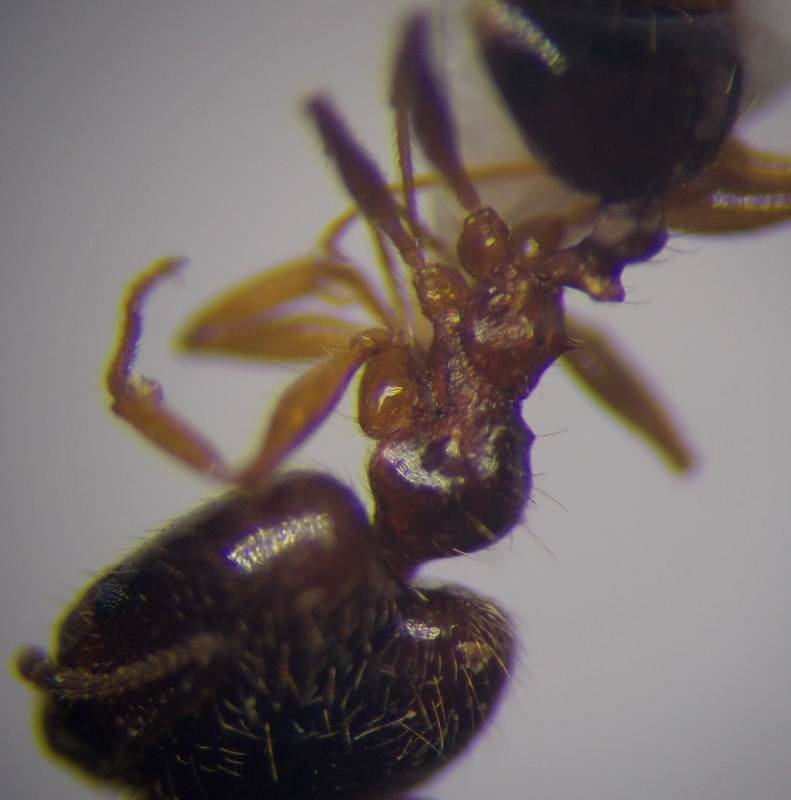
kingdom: Animalia
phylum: Arthropoda
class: Insecta
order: Hymenoptera
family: Formicidae
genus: Pheidole
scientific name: Pheidole pallidula
